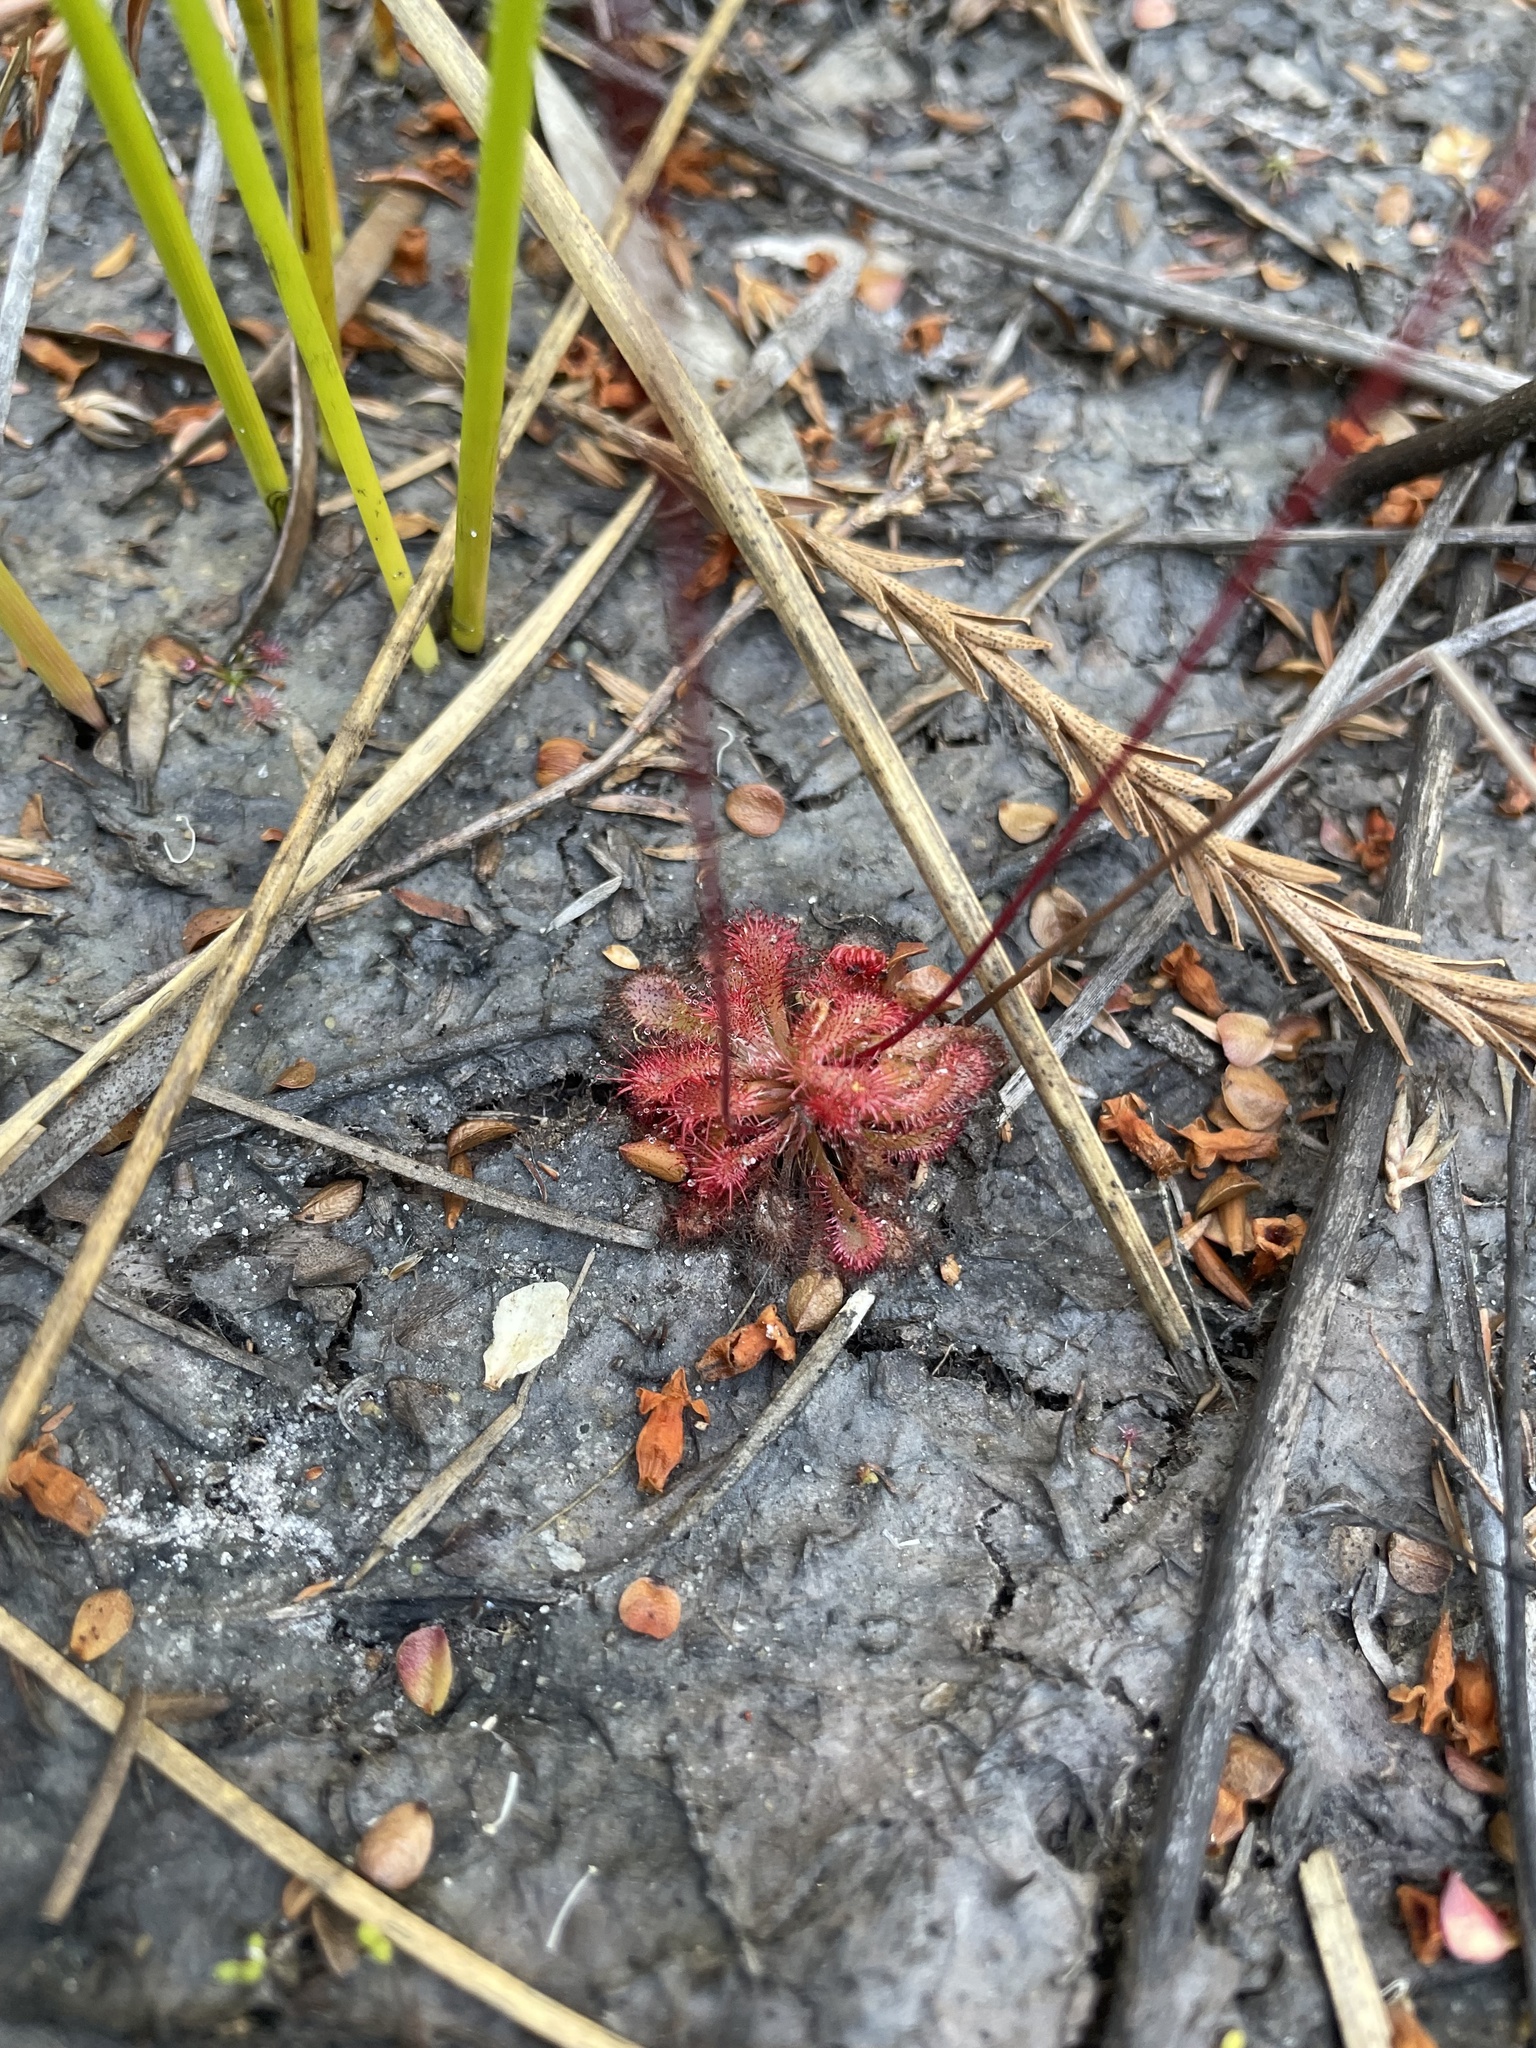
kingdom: Plantae
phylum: Tracheophyta
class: Magnoliopsida
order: Caryophyllales
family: Droseraceae
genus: Drosera
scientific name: Drosera spatulata
